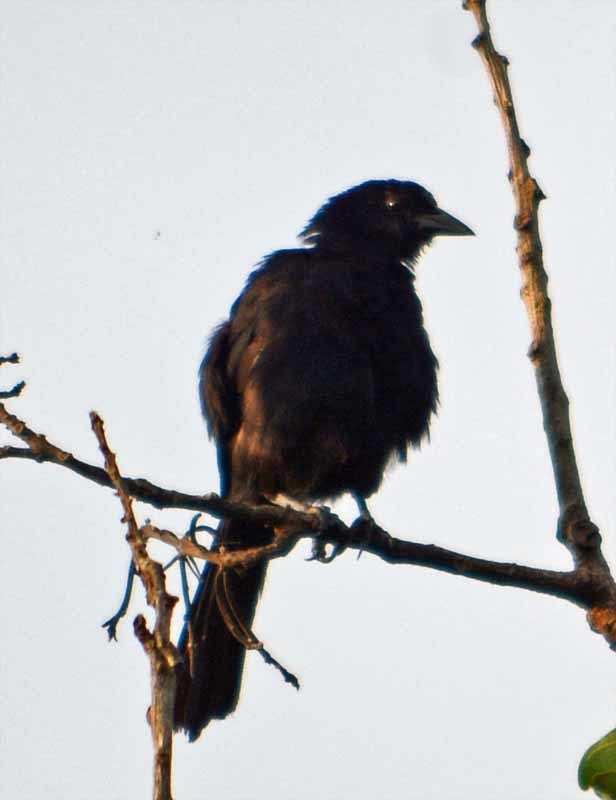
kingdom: Animalia
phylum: Chordata
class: Aves
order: Passeriformes
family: Icteridae
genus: Dives
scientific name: Dives dives
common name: Melodious blackbird
